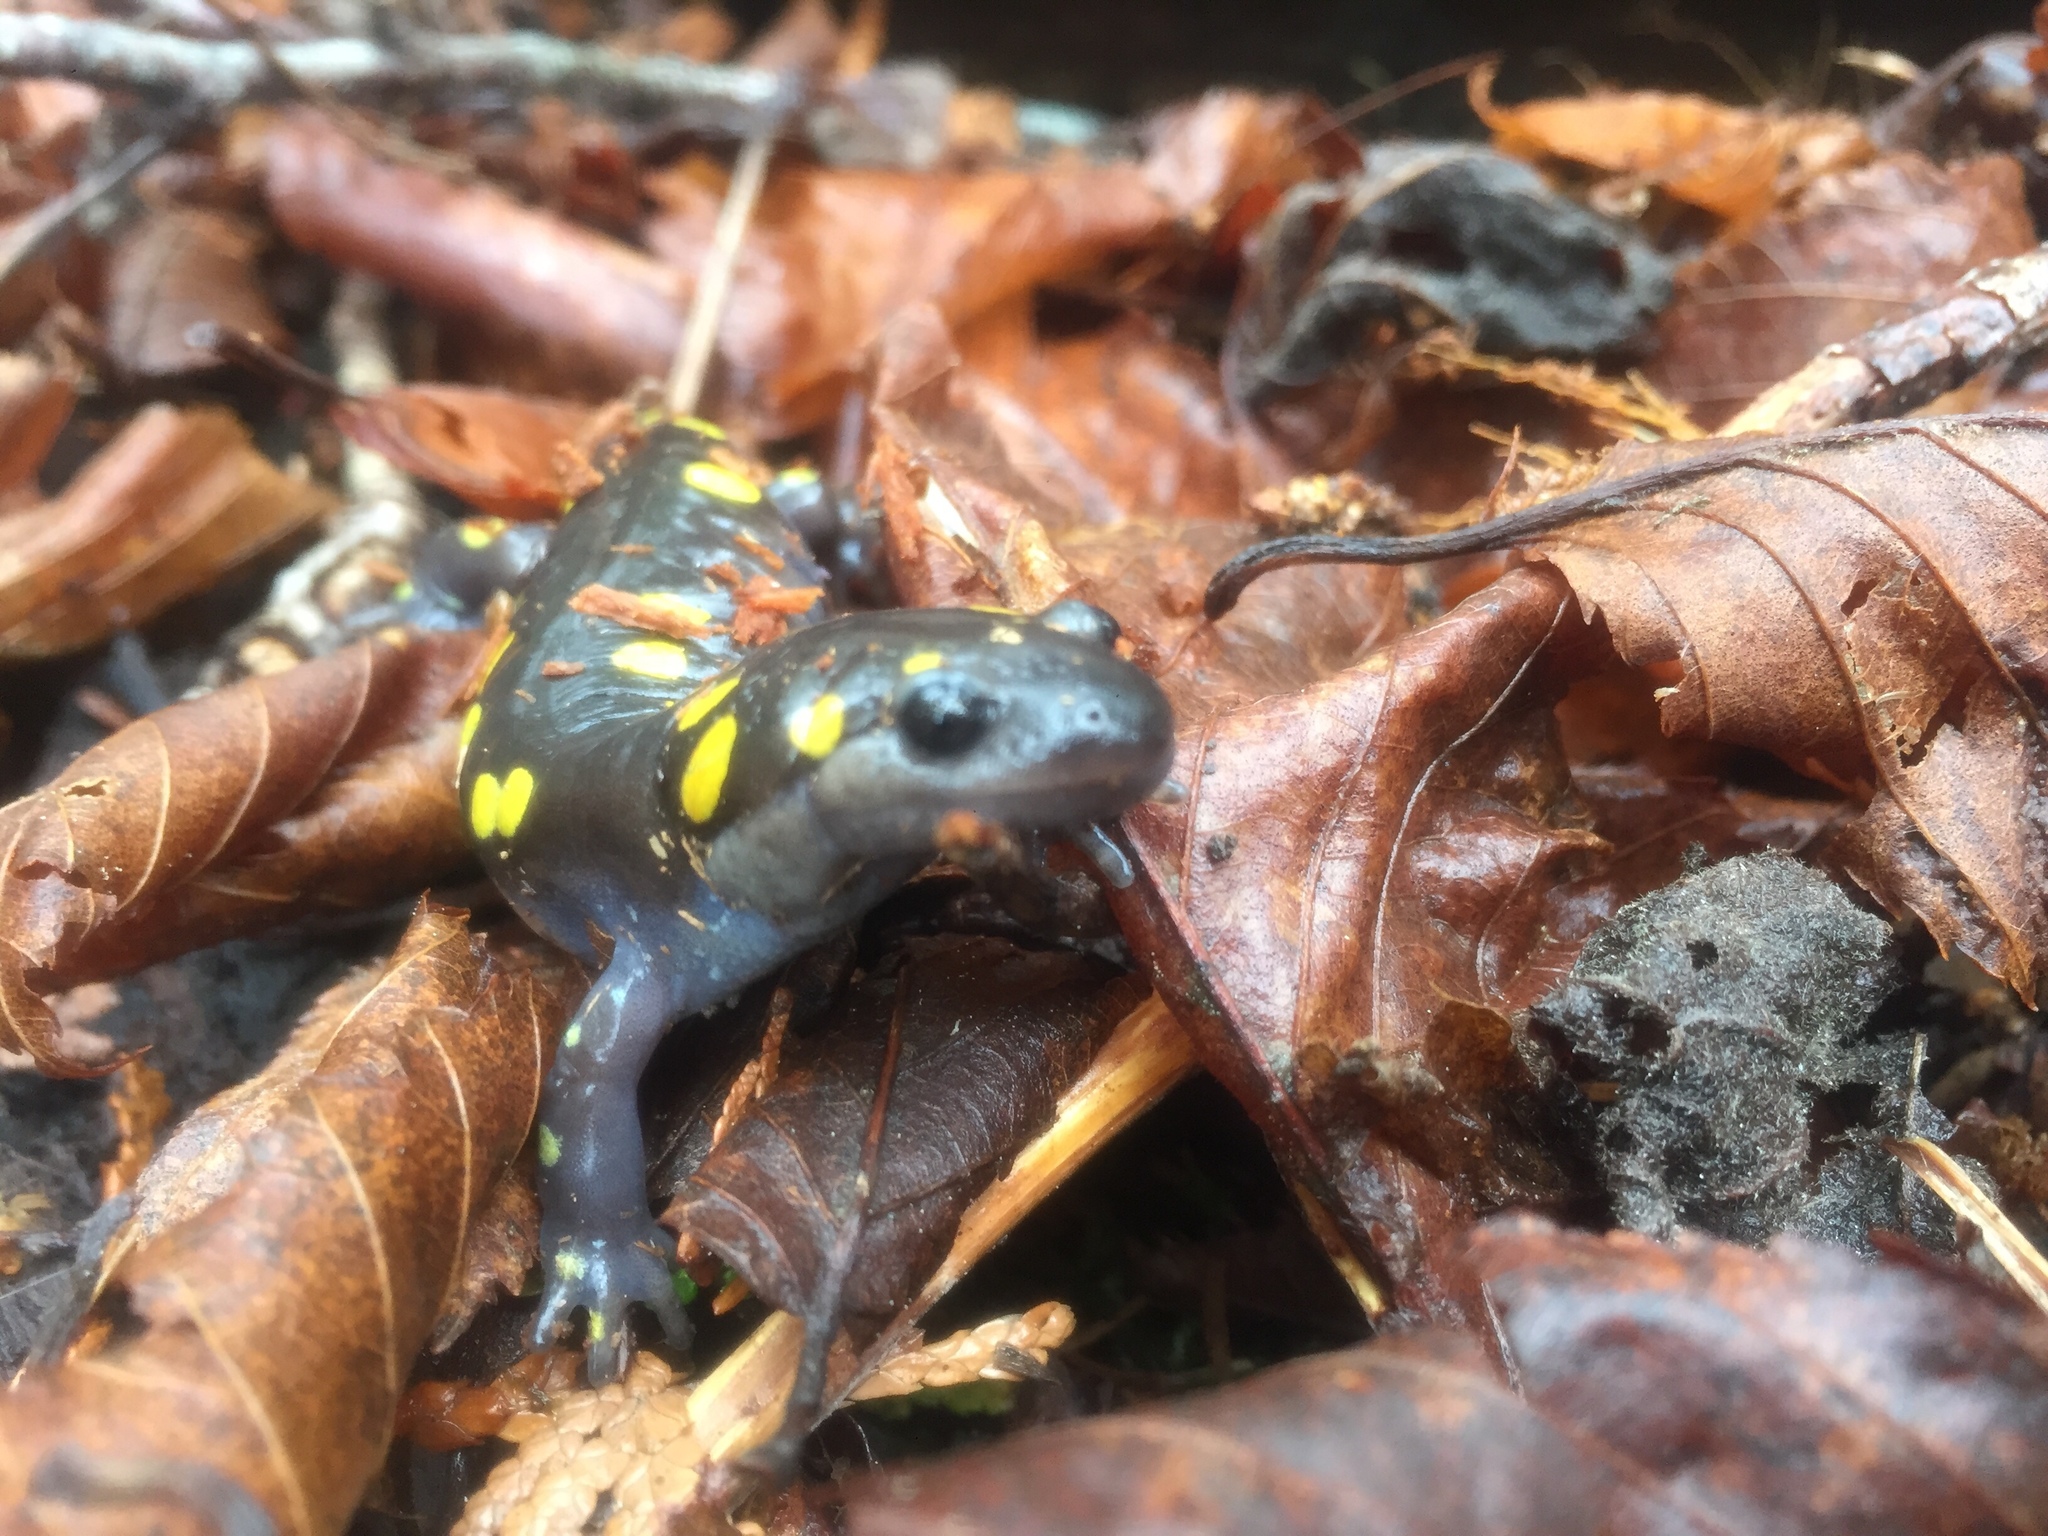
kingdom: Animalia
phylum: Chordata
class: Amphibia
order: Caudata
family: Ambystomatidae
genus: Ambystoma
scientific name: Ambystoma maculatum
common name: Spotted salamander
